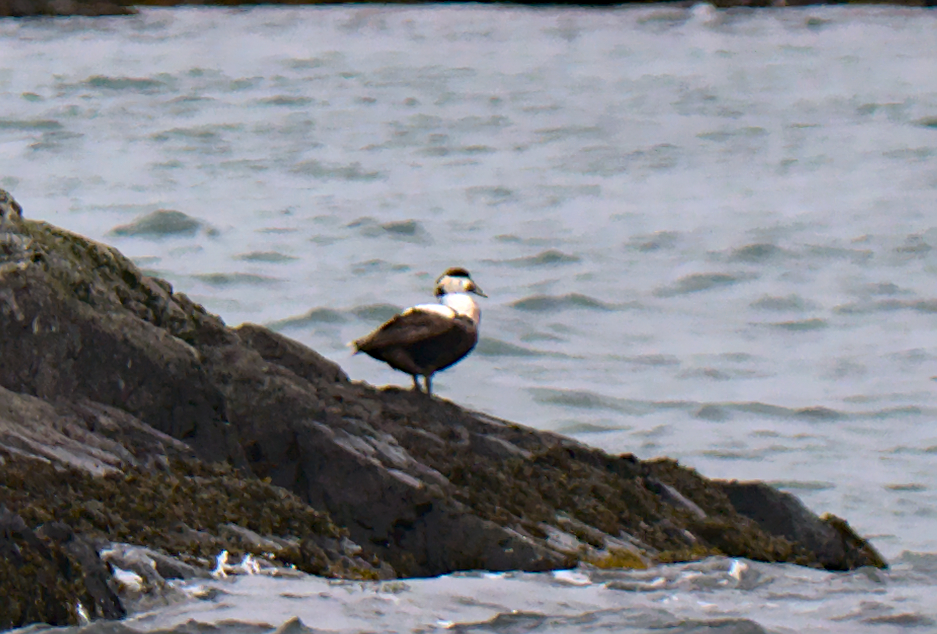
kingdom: Animalia
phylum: Chordata
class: Aves
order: Anseriformes
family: Anatidae
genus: Somateria
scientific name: Somateria mollissima
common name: Common eider
